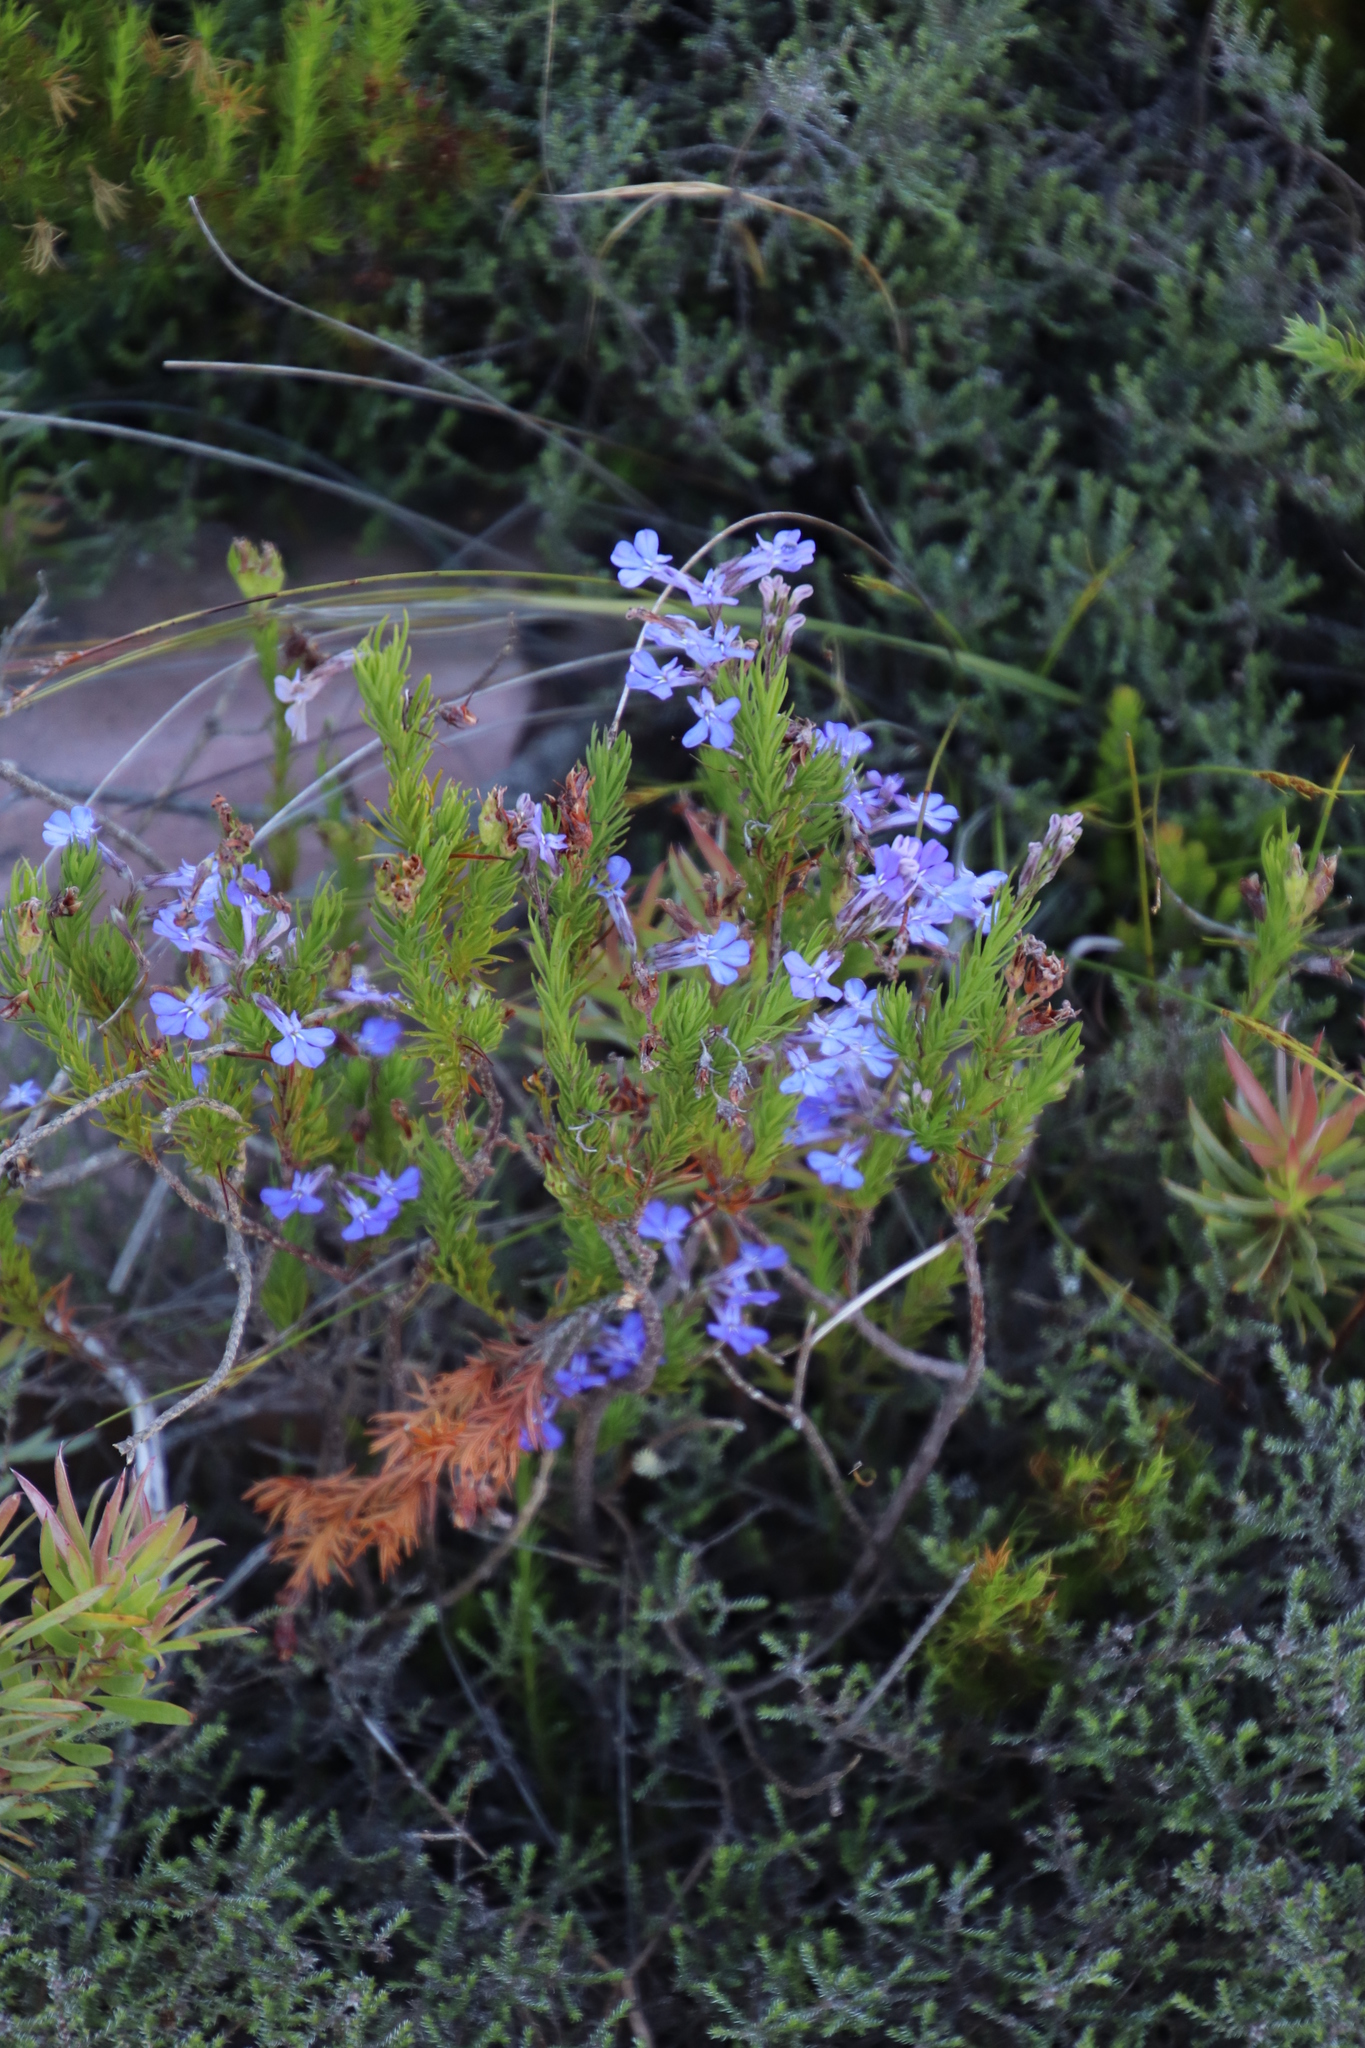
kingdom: Plantae
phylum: Tracheophyta
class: Magnoliopsida
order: Asterales
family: Campanulaceae
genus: Lobelia
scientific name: Lobelia pinifolia
